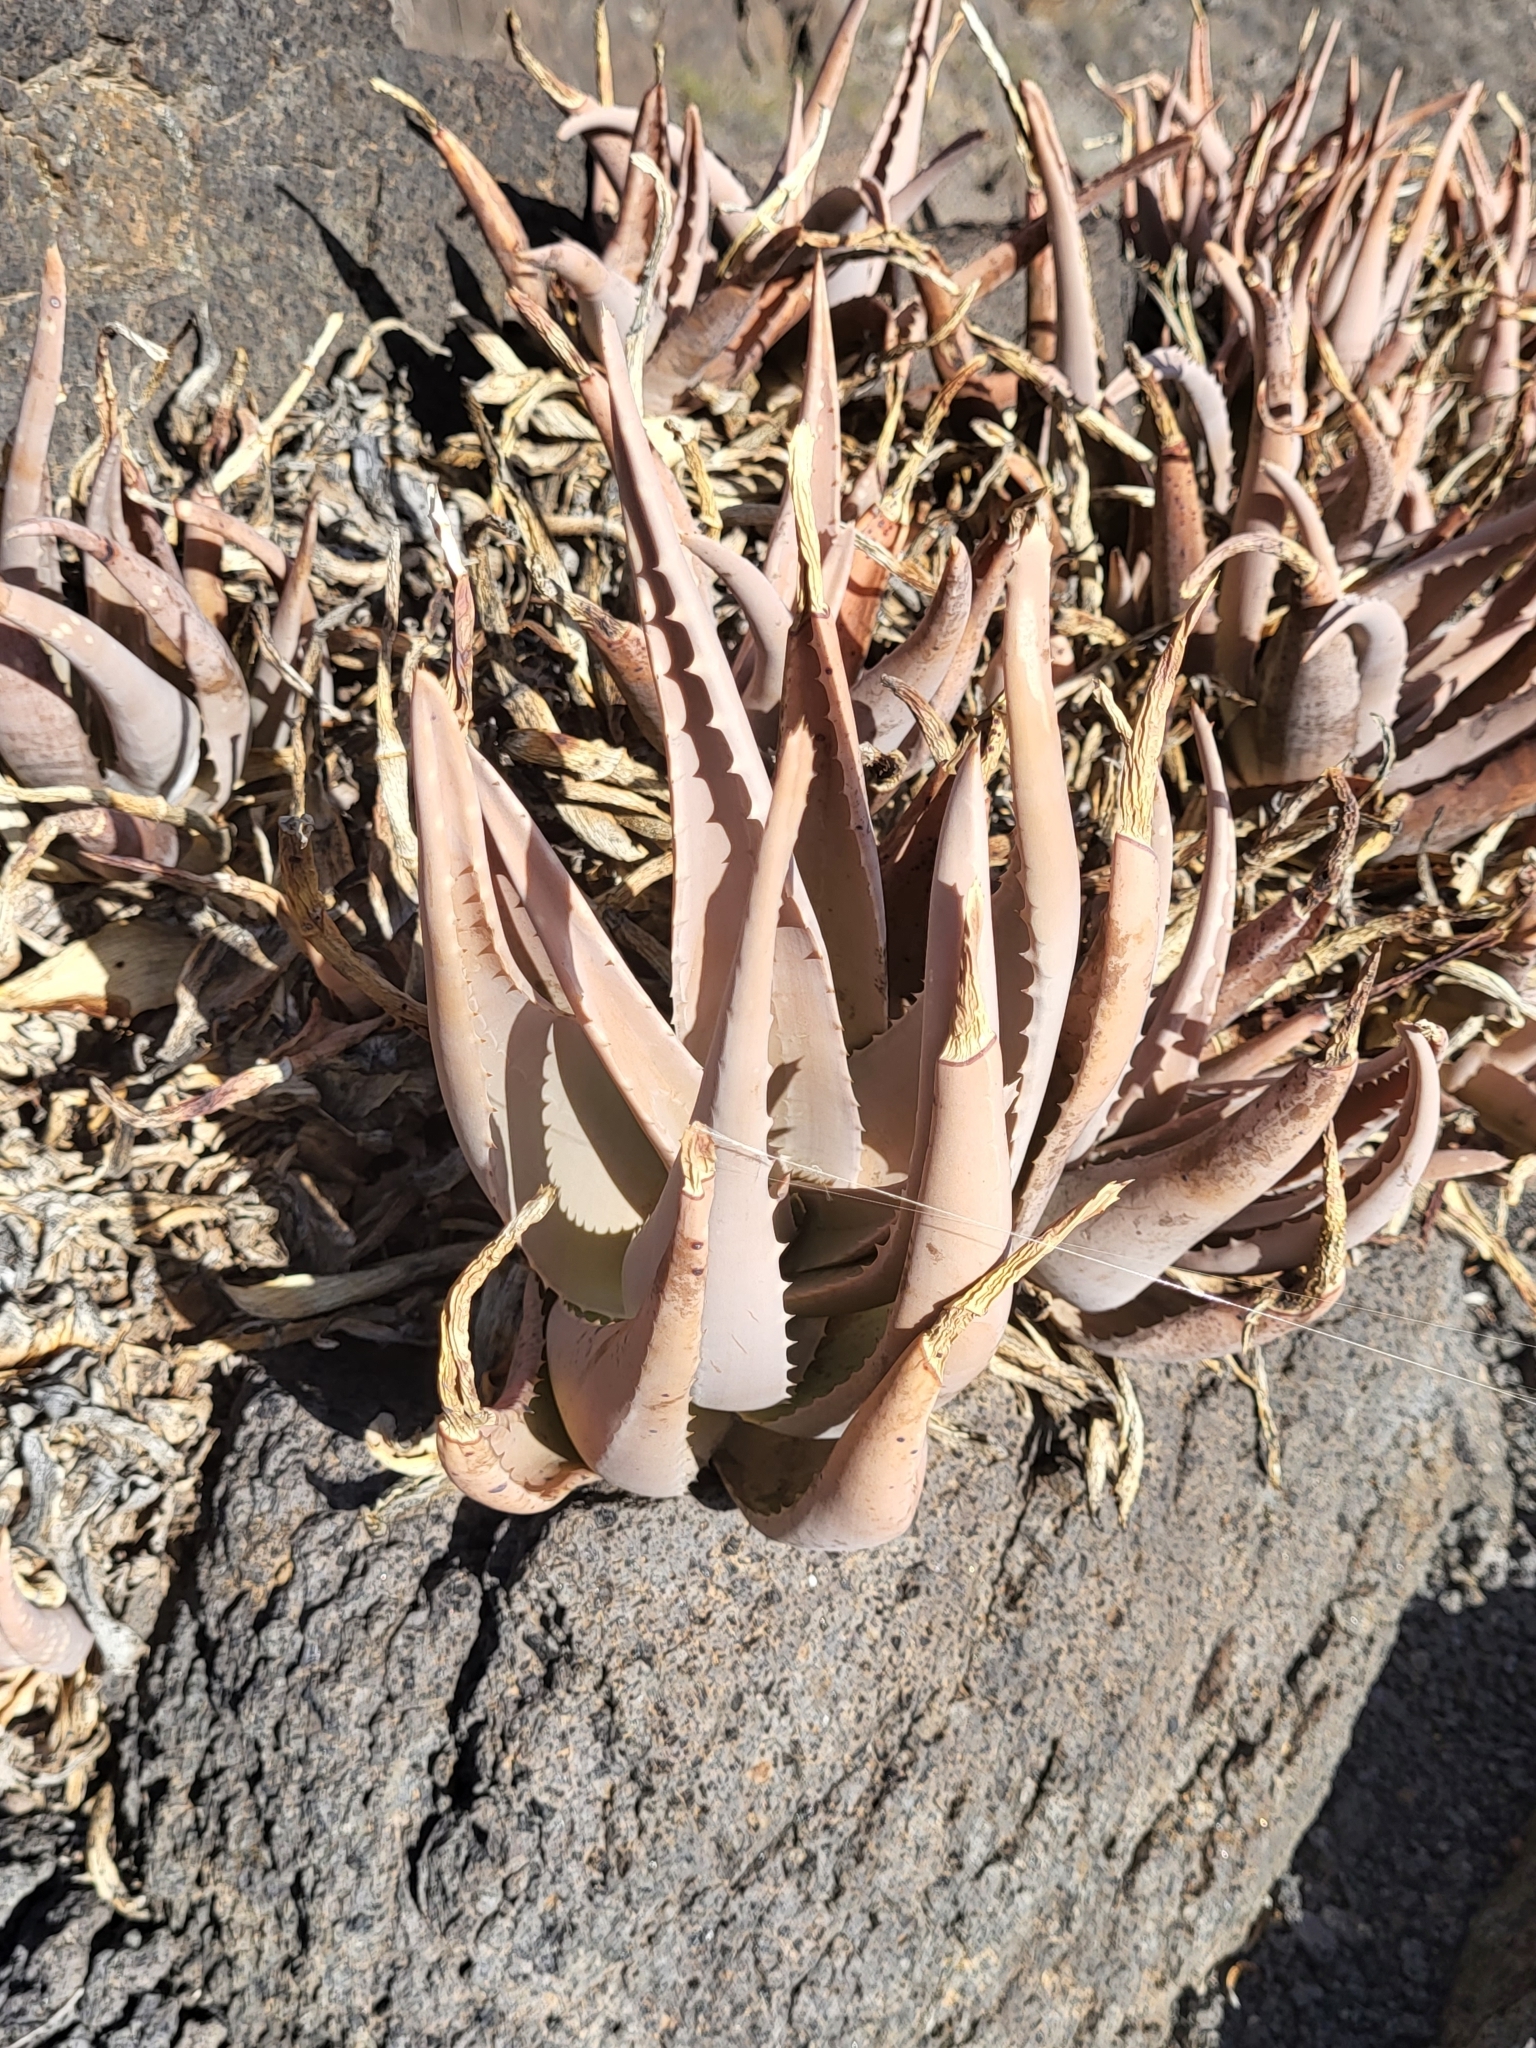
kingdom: Plantae
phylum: Tracheophyta
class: Liliopsida
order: Asparagales
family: Asphodelaceae
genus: Aloe
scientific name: Aloe vera
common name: Barbados aloe
